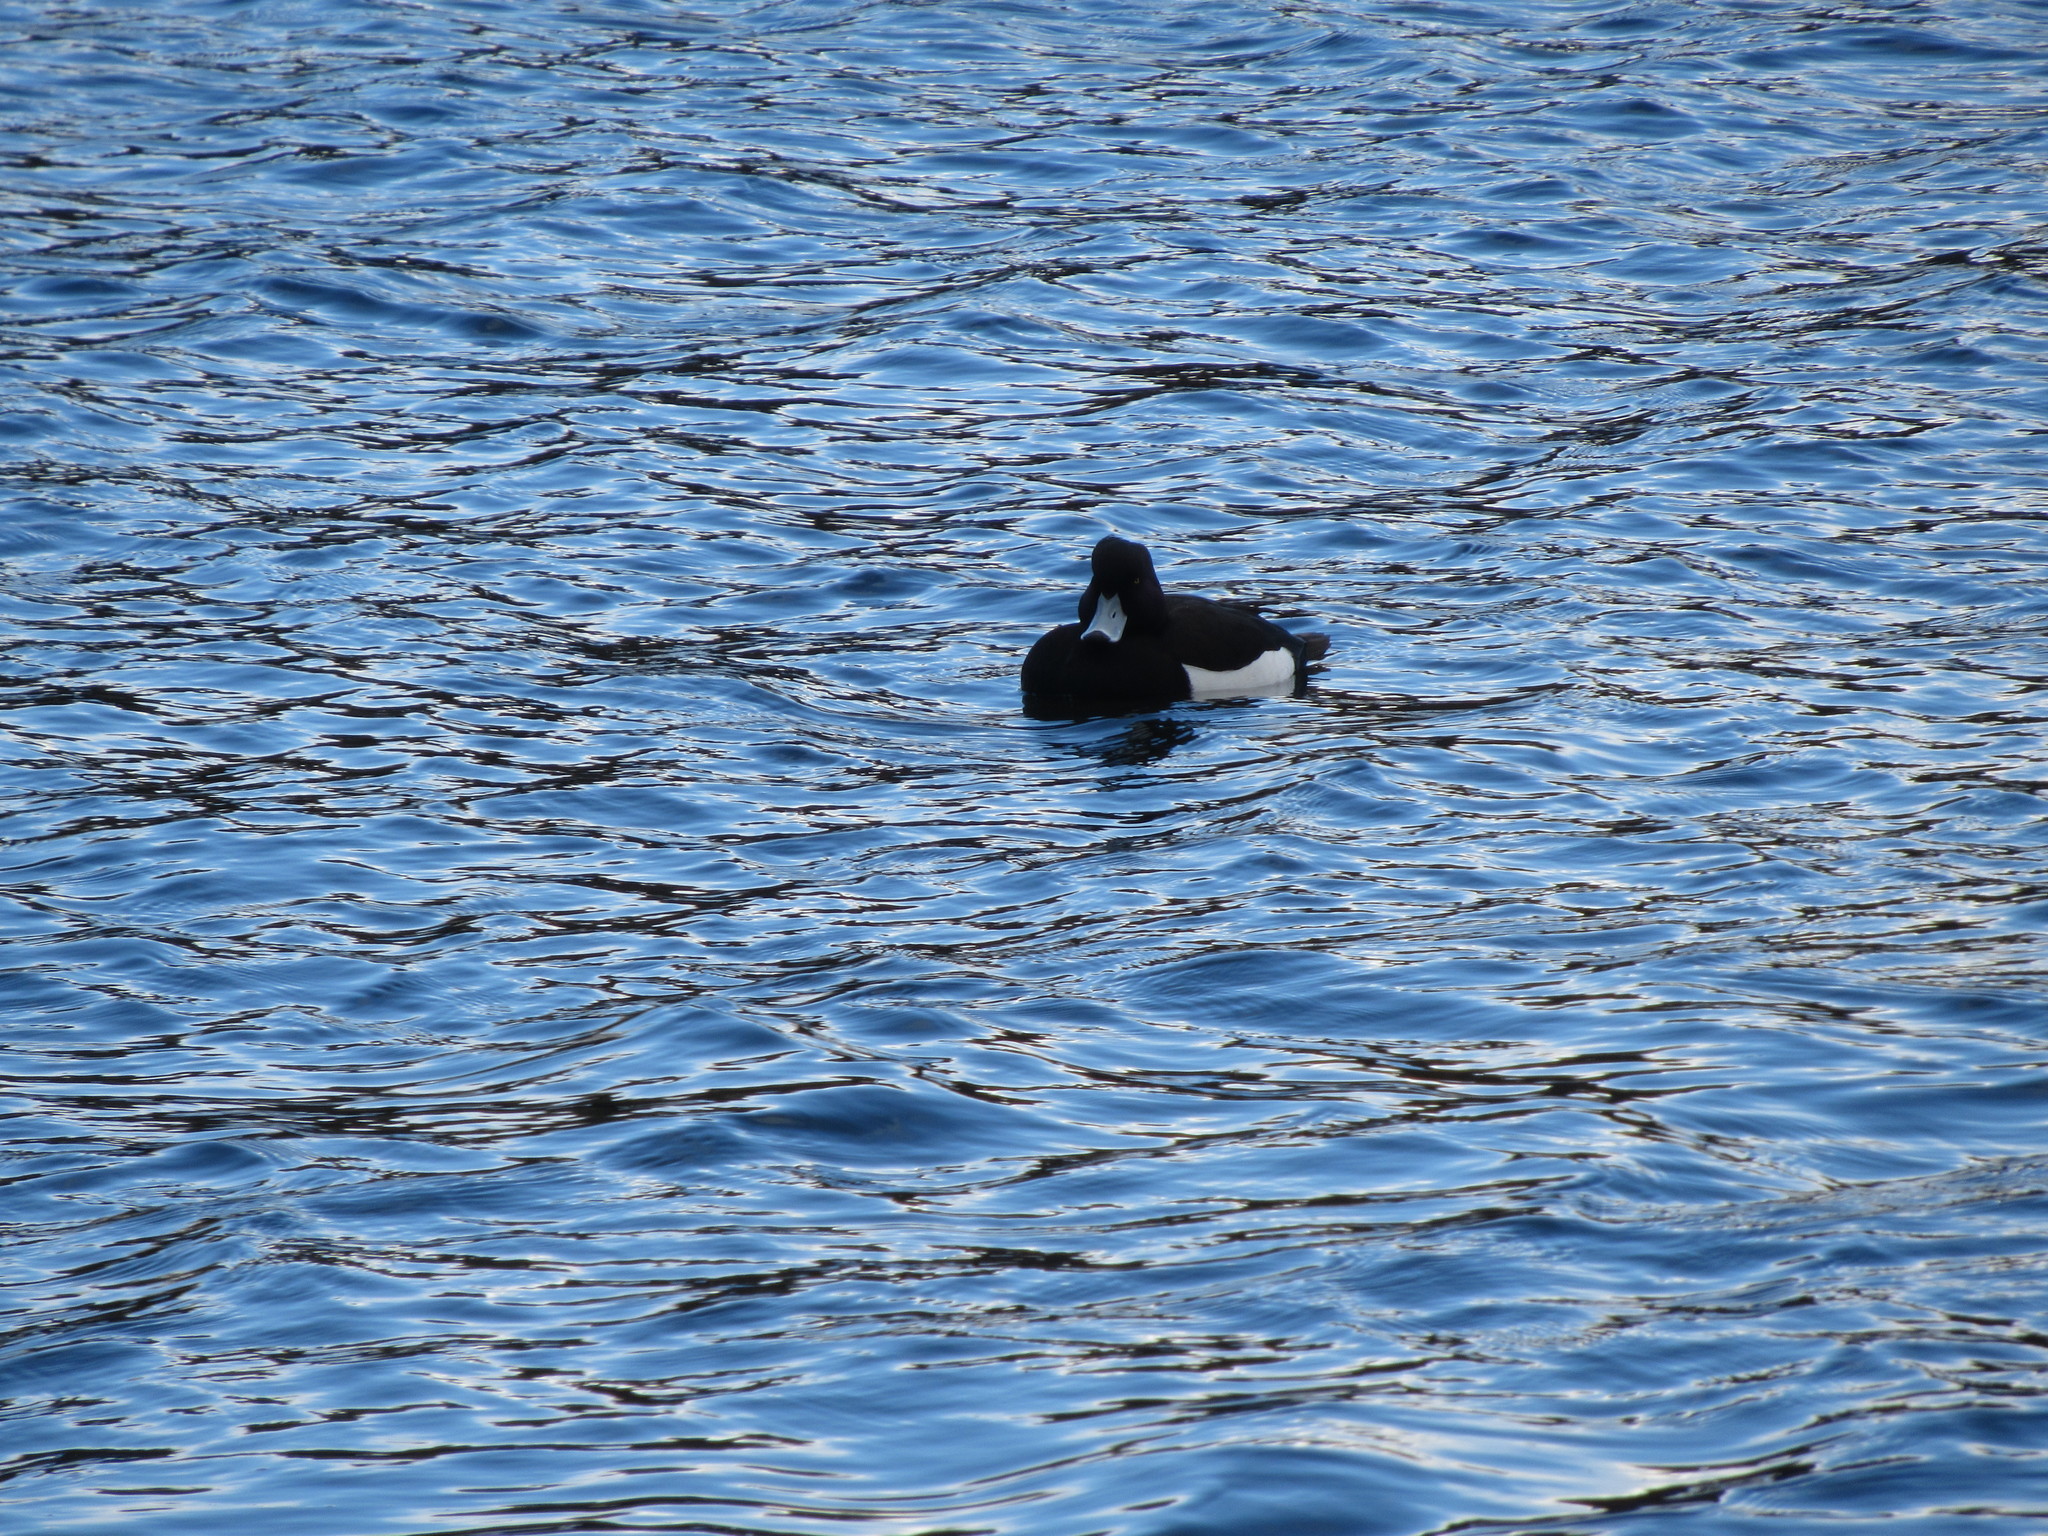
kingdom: Animalia
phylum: Chordata
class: Aves
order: Anseriformes
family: Anatidae
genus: Aythya
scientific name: Aythya fuligula
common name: Tufted duck
